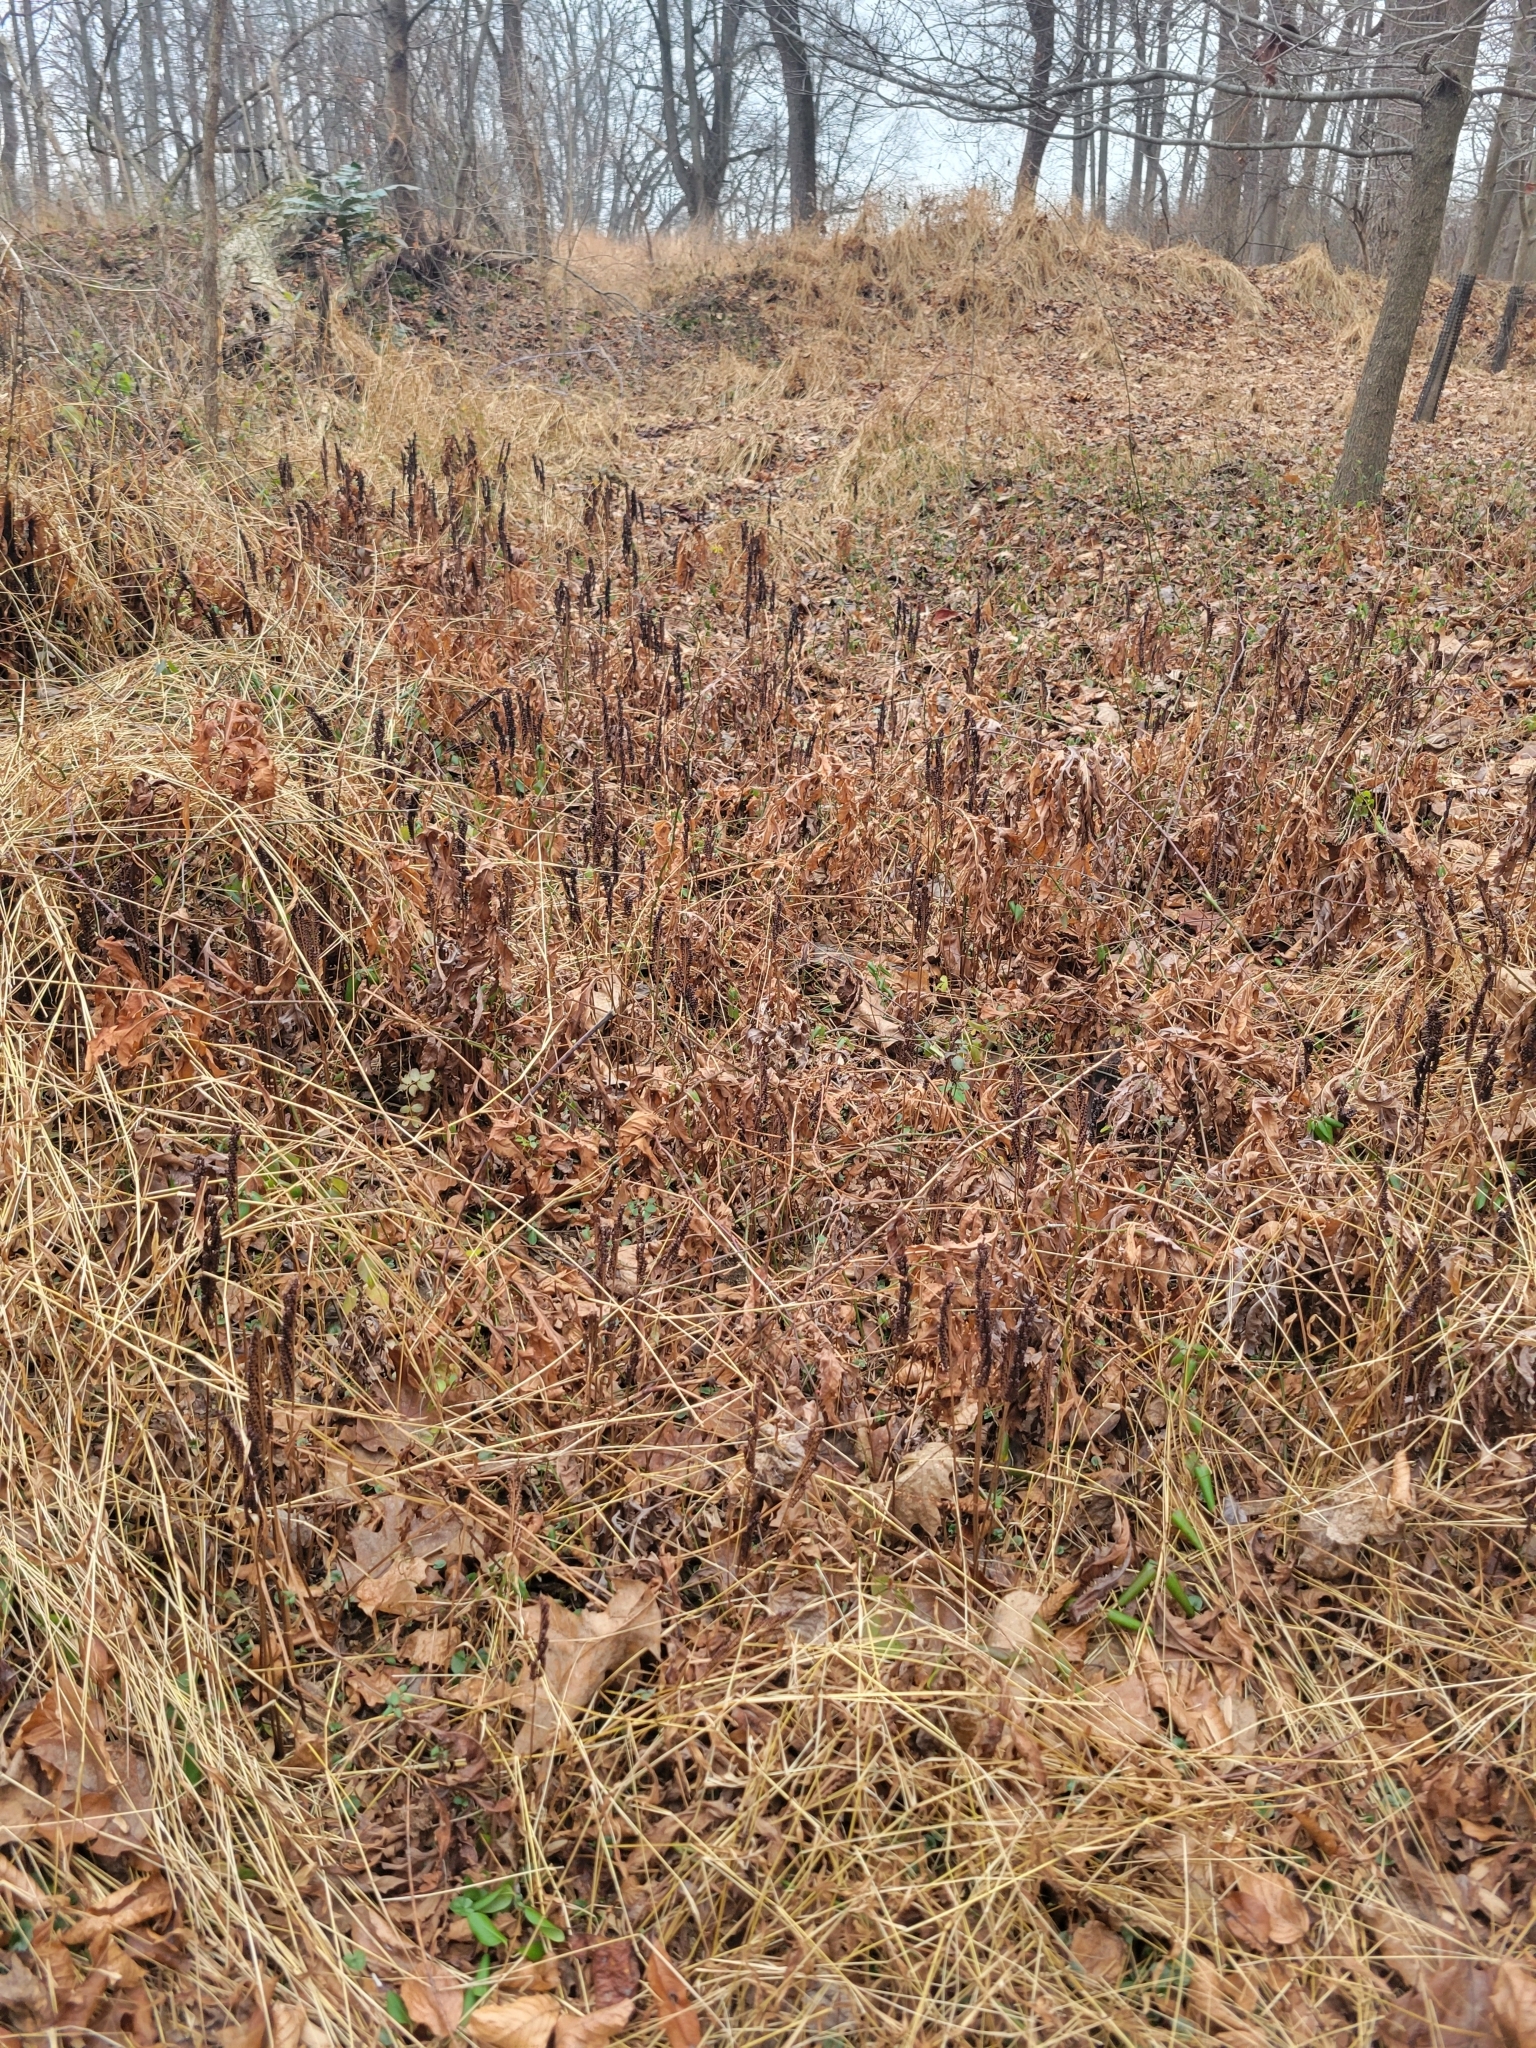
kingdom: Plantae
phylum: Tracheophyta
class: Polypodiopsida
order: Polypodiales
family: Onocleaceae
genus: Onoclea
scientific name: Onoclea sensibilis
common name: Sensitive fern
